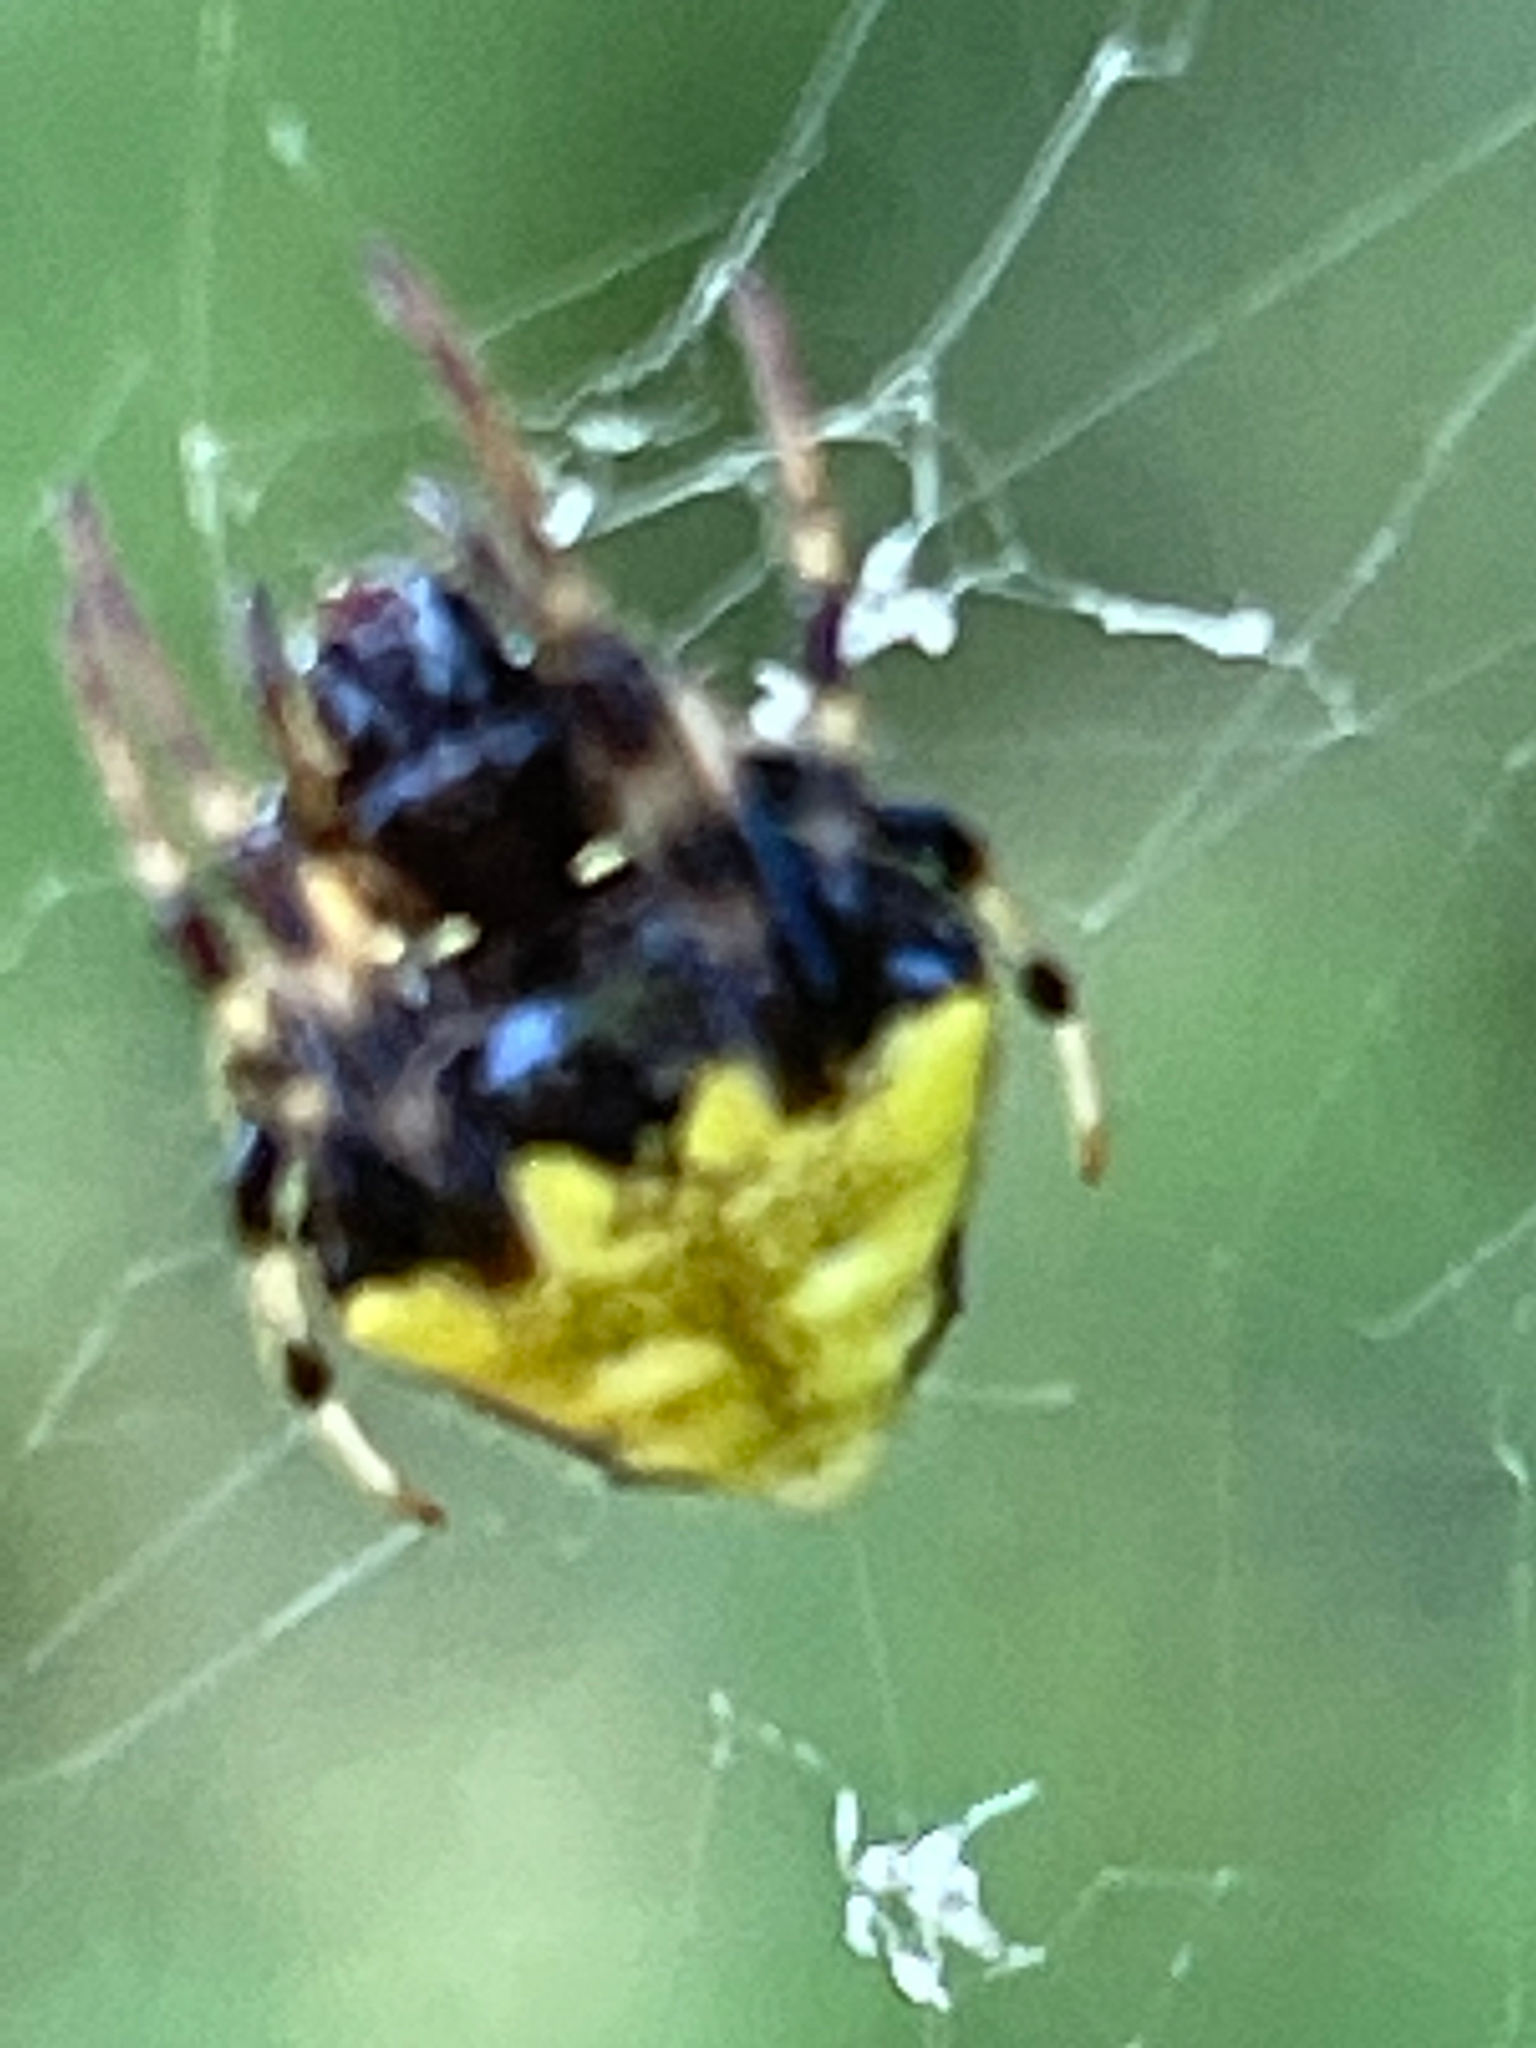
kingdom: Animalia
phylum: Arthropoda
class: Arachnida
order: Araneae
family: Araneidae
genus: Verrucosa
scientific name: Verrucosa arenata
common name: Orb weavers
